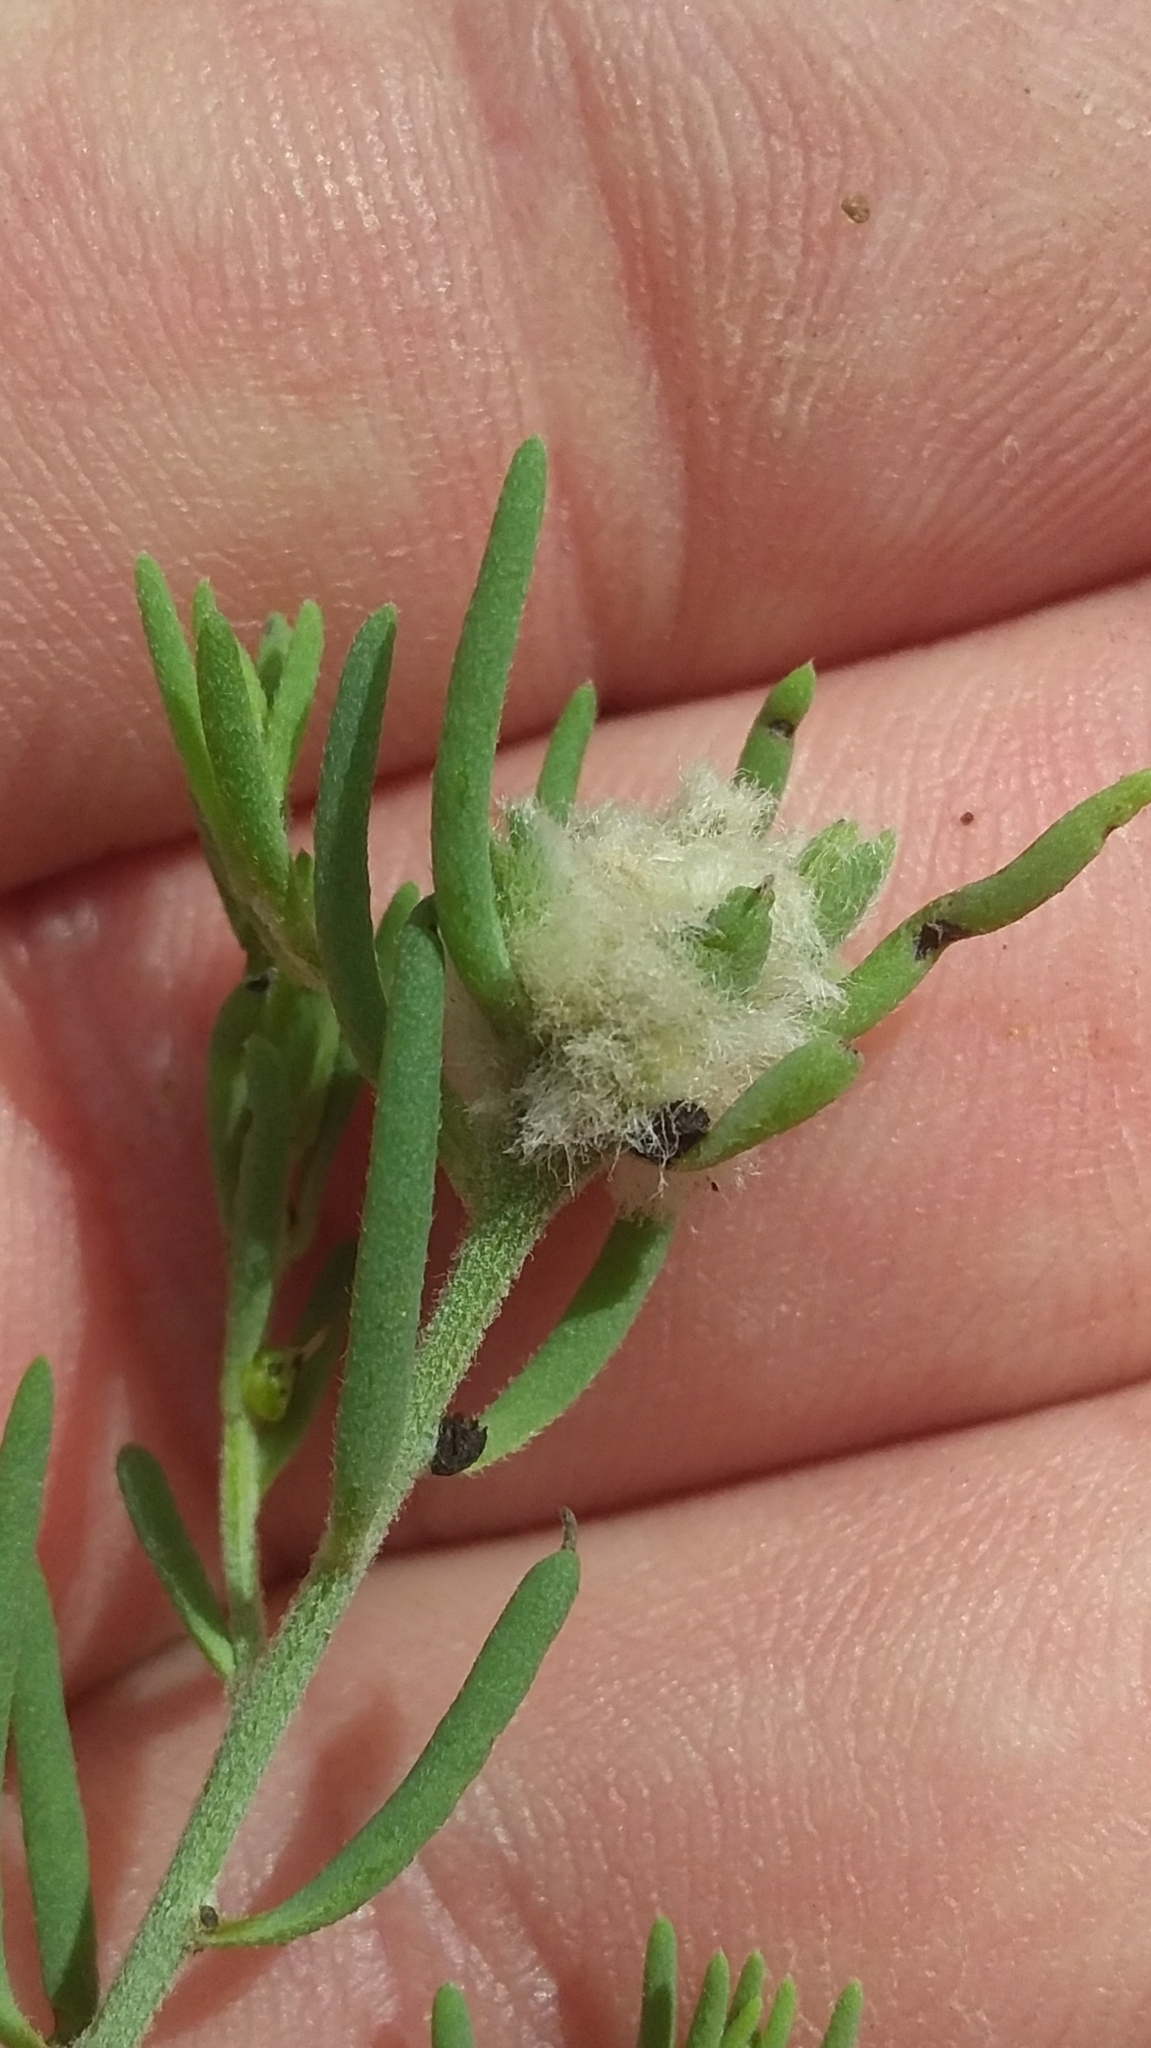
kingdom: Animalia
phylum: Arthropoda
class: Insecta
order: Diptera
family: Cecidomyiidae
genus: Asphondylia
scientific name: Asphondylia tonsura
